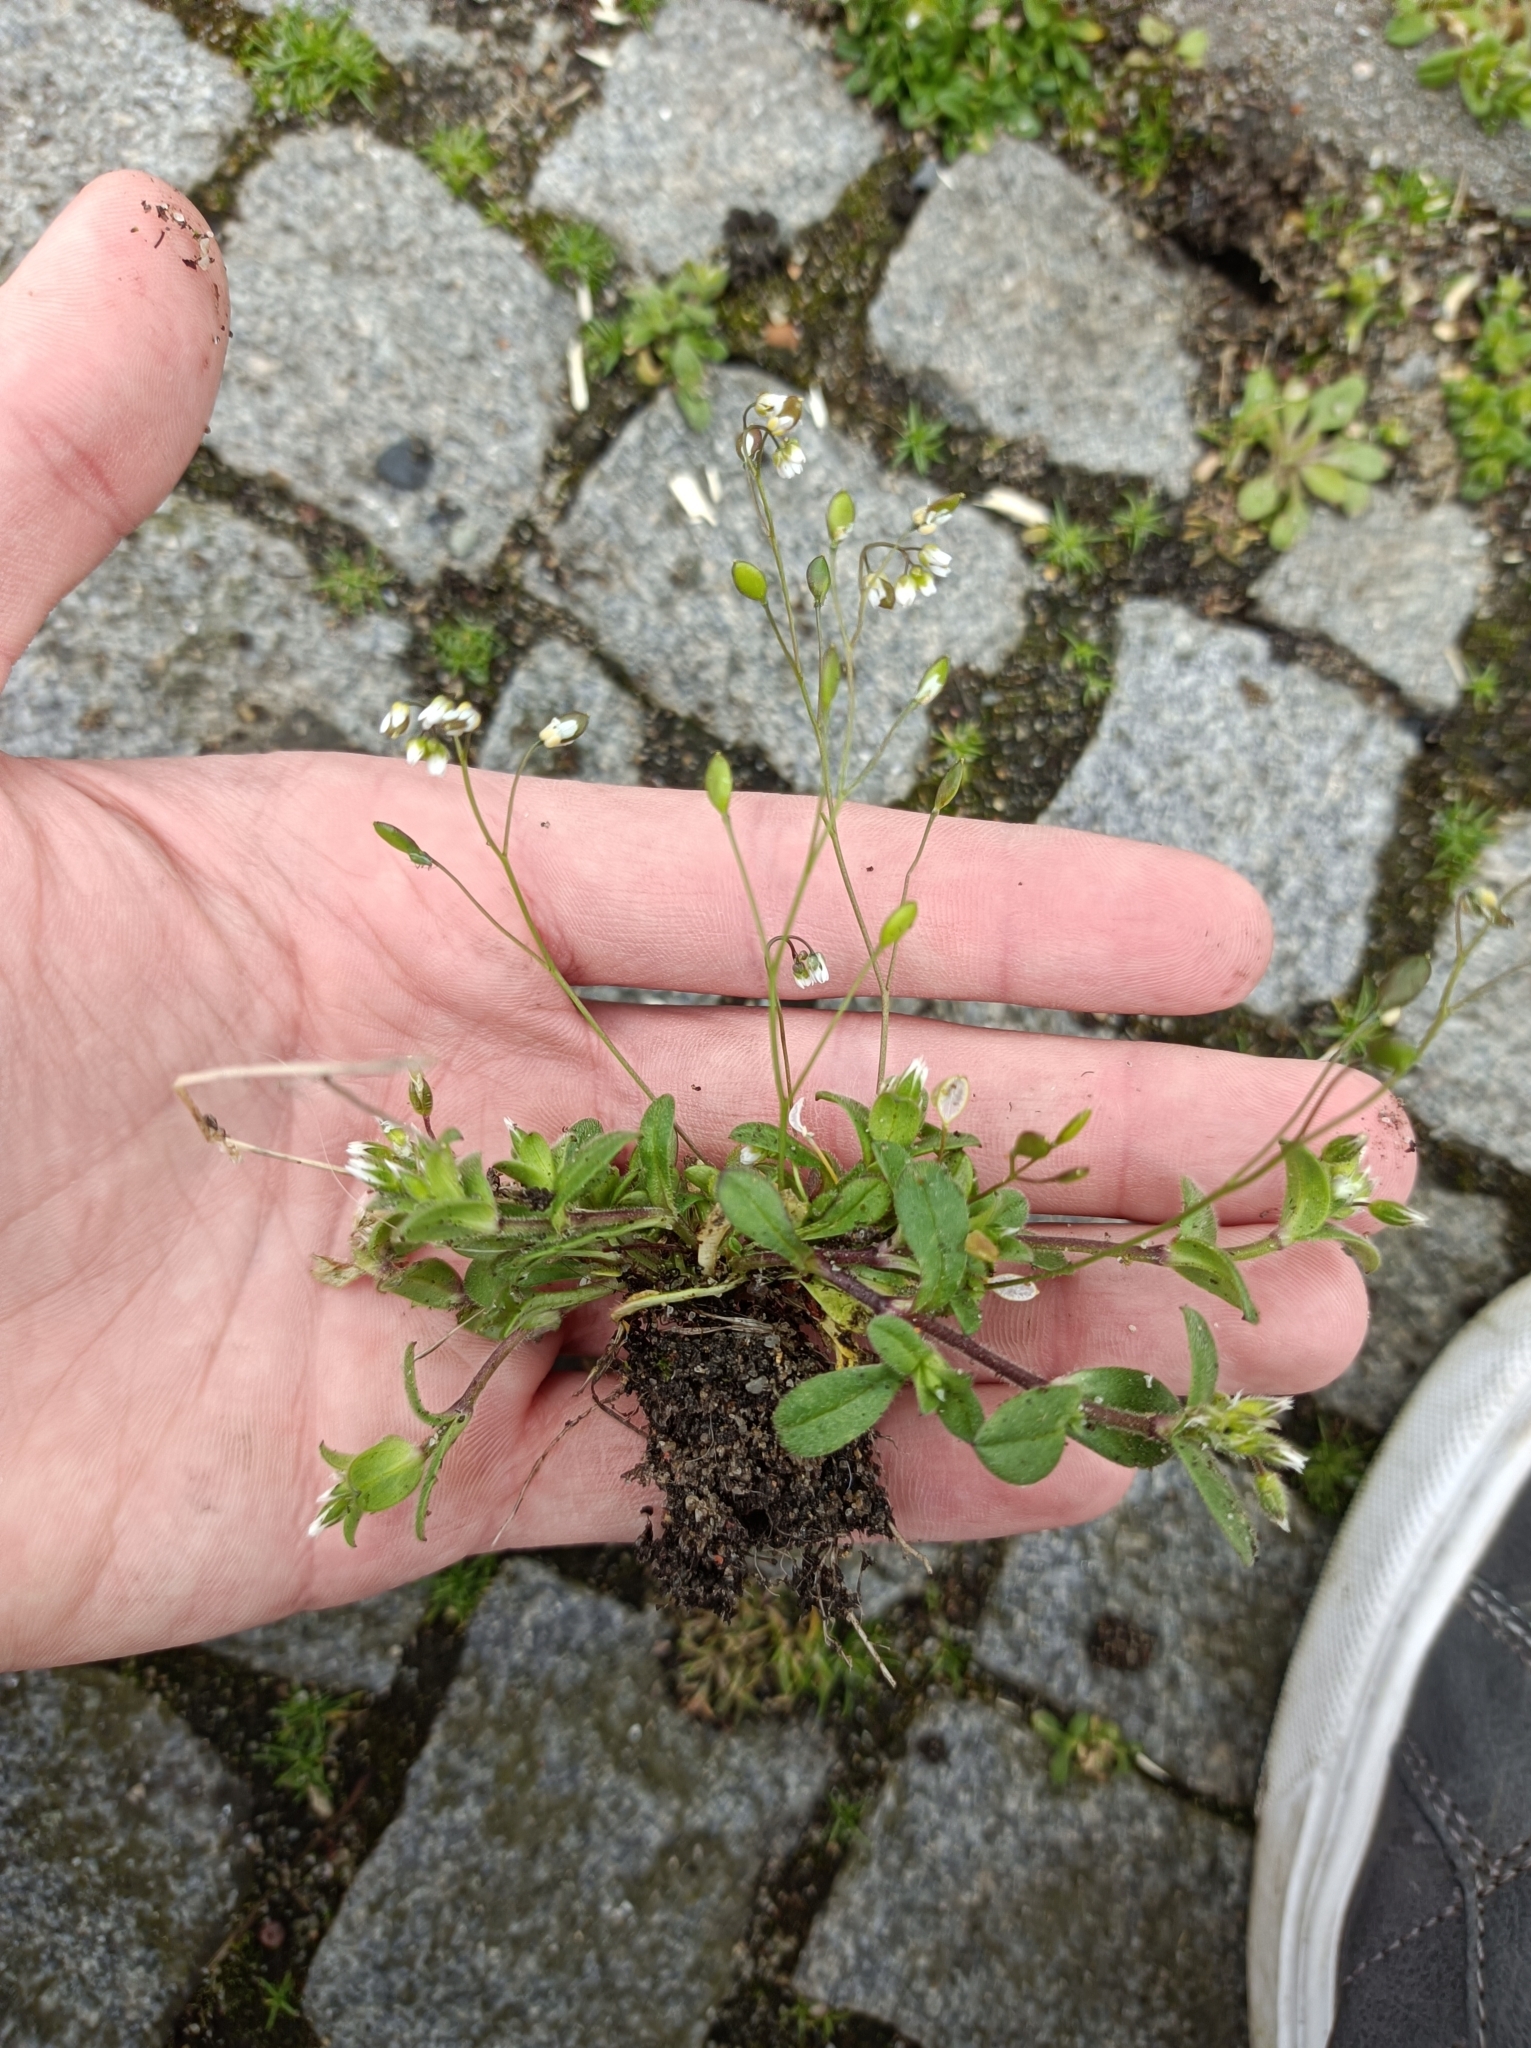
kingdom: Plantae
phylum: Tracheophyta
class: Magnoliopsida
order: Brassicales
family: Brassicaceae
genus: Draba
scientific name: Draba verna
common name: Spring draba
